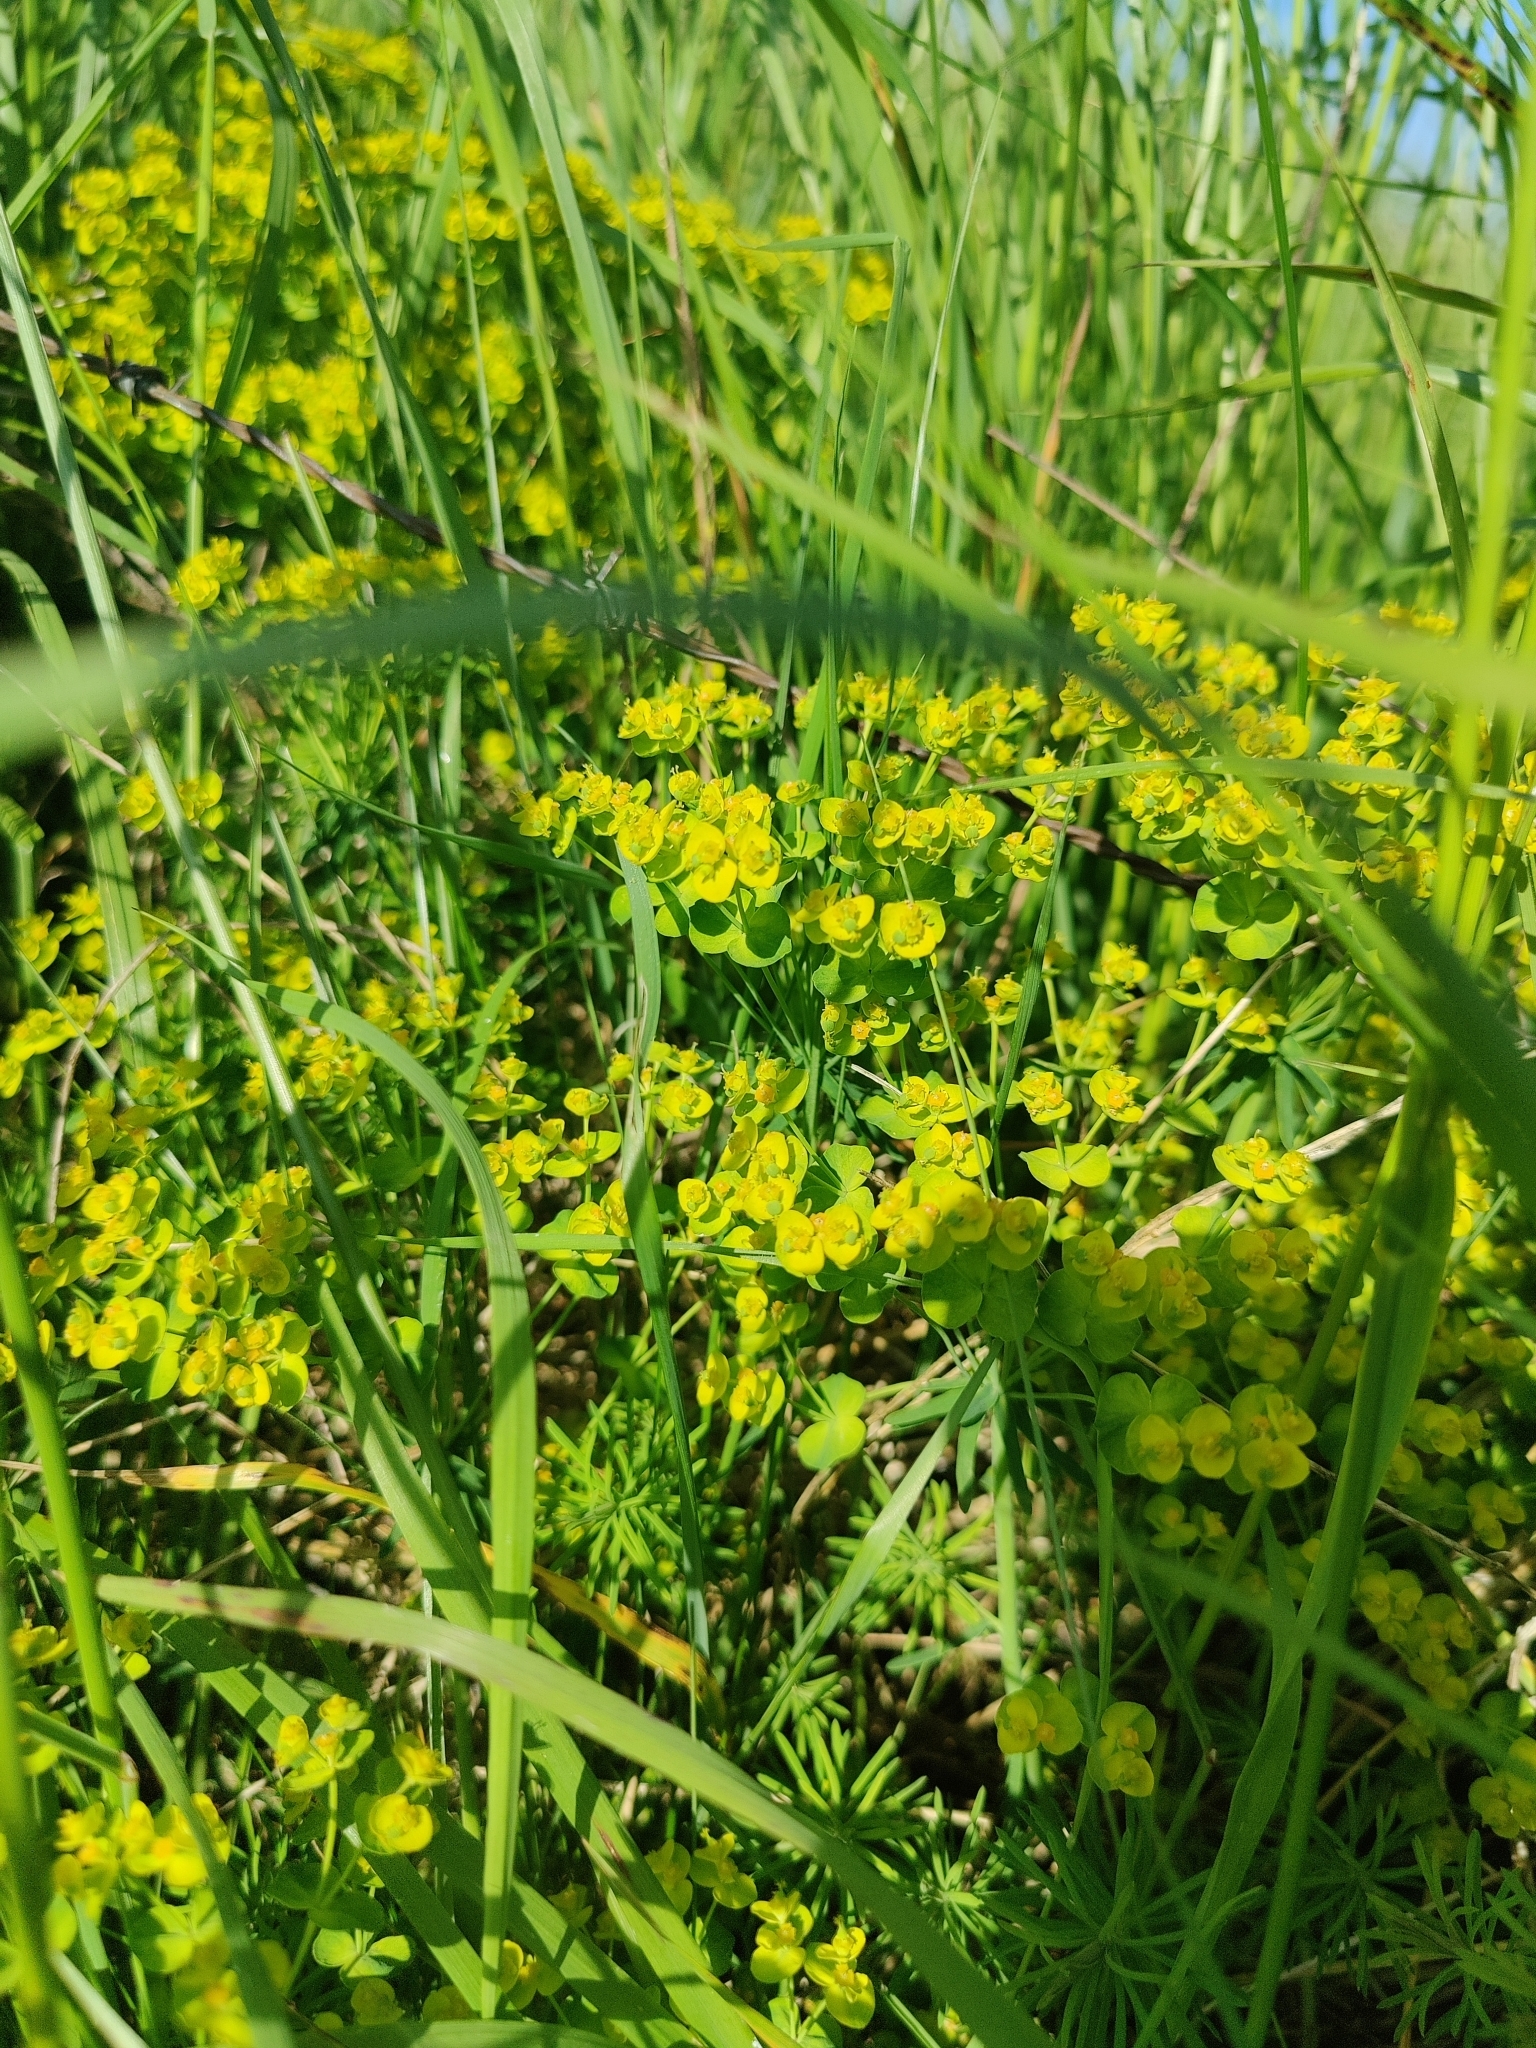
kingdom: Plantae
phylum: Tracheophyta
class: Magnoliopsida
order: Malpighiales
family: Euphorbiaceae
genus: Euphorbia
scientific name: Euphorbia cyparissias
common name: Cypress spurge
